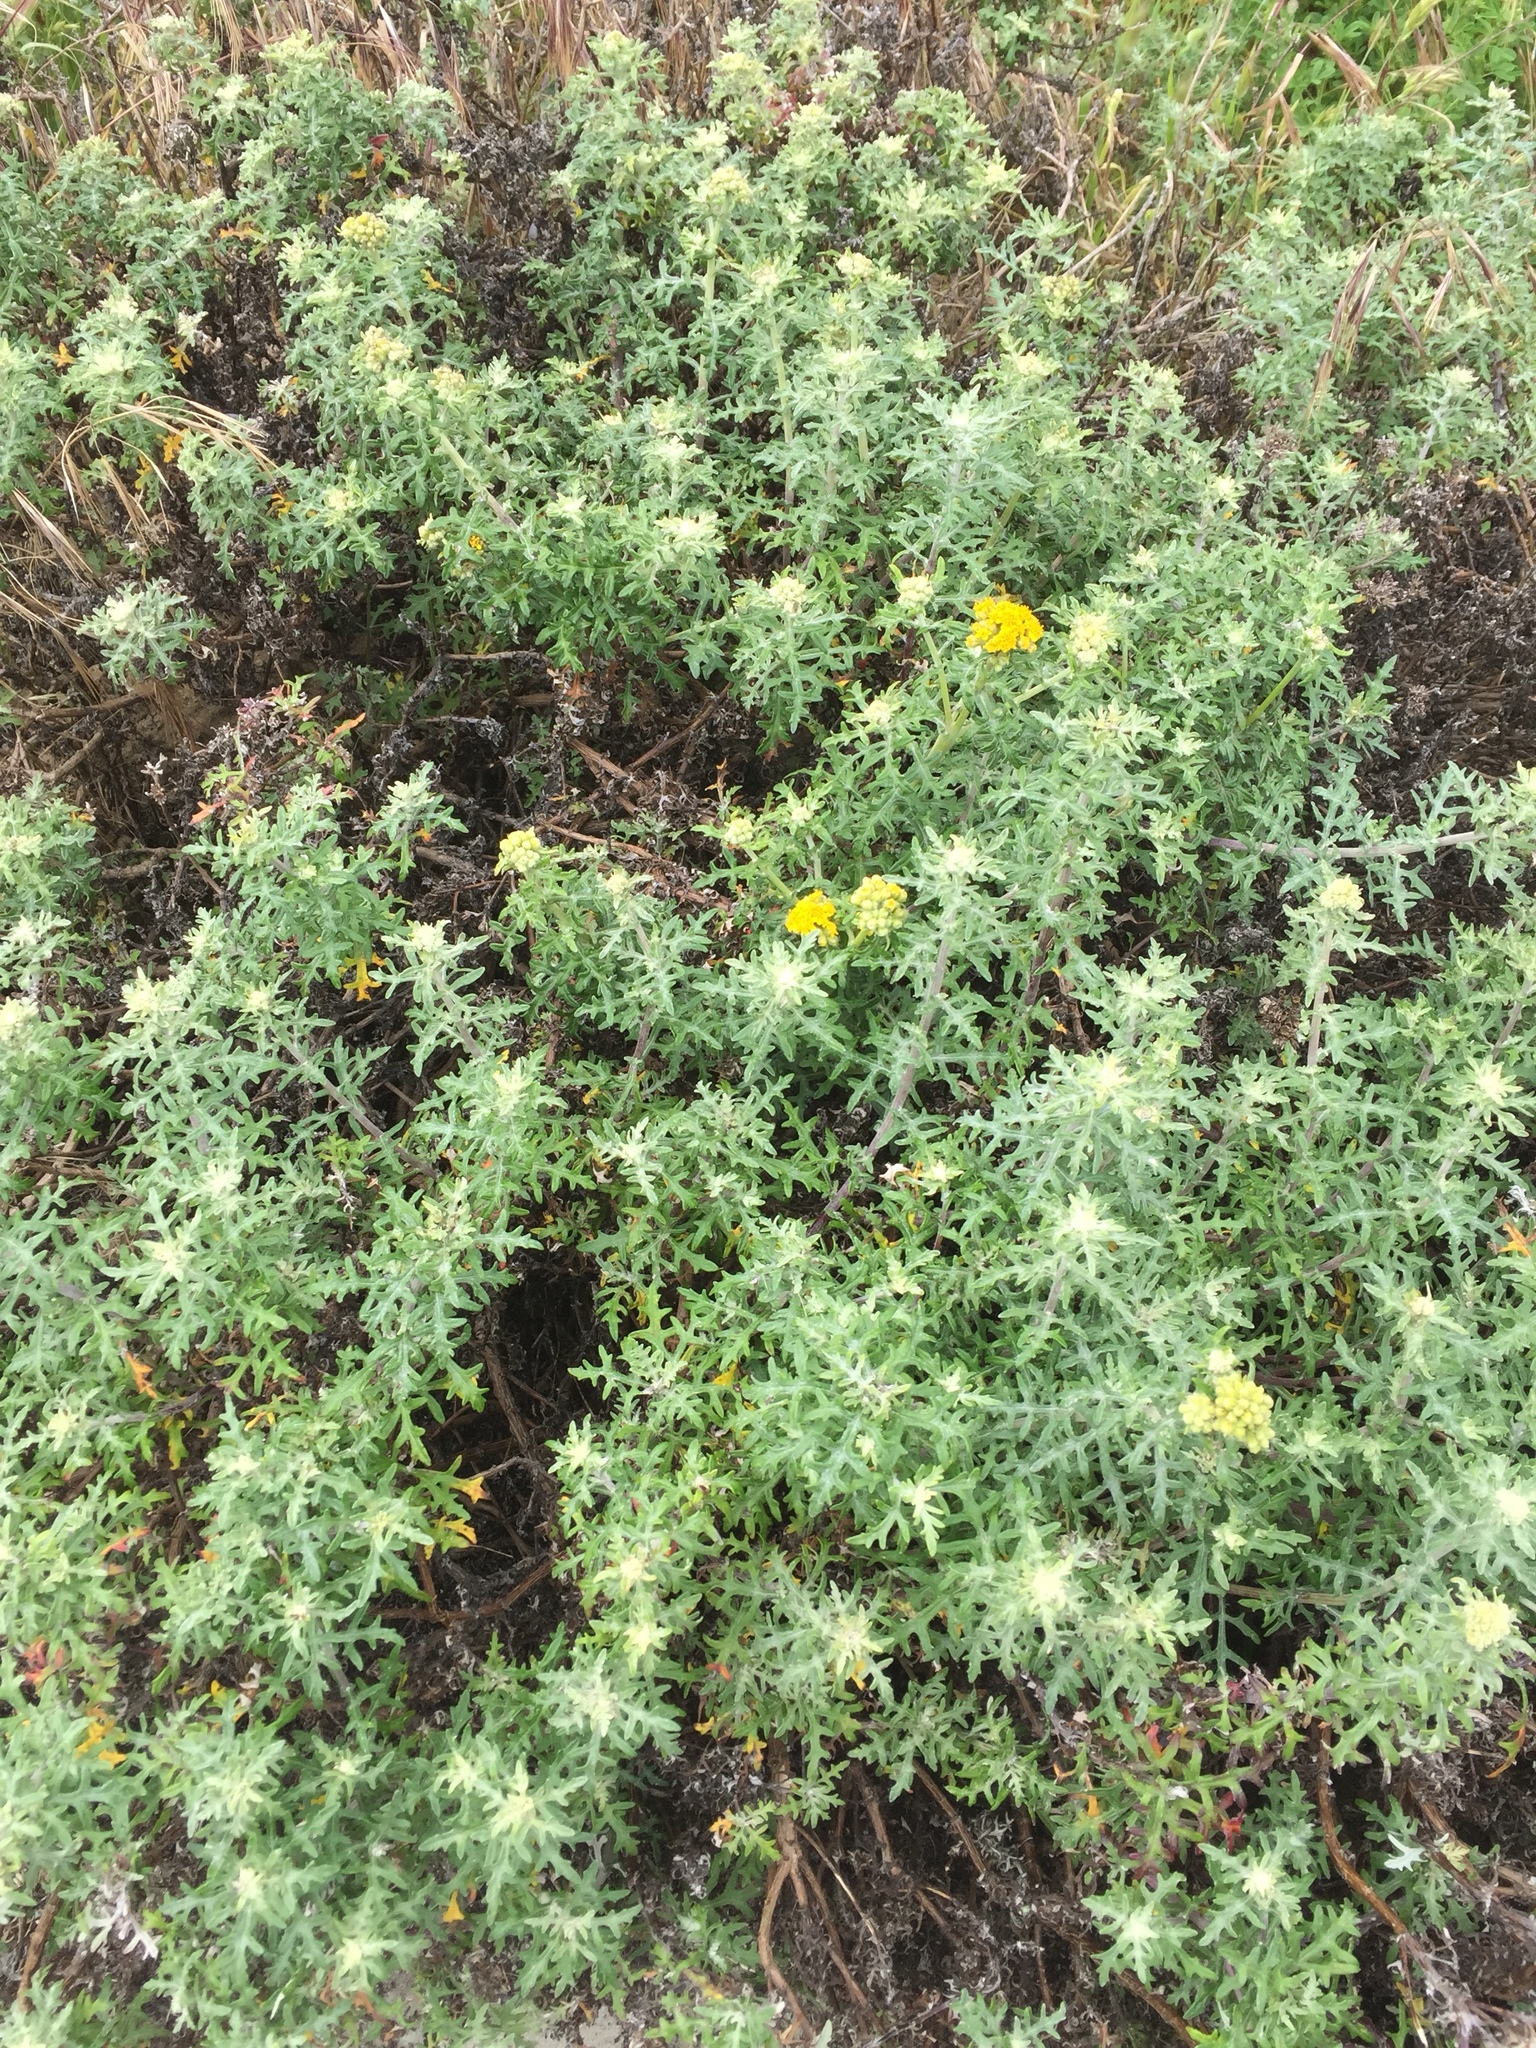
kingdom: Plantae
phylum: Tracheophyta
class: Magnoliopsida
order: Asterales
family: Asteraceae
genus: Eriophyllum
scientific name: Eriophyllum staechadifolium
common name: Lizardtail
